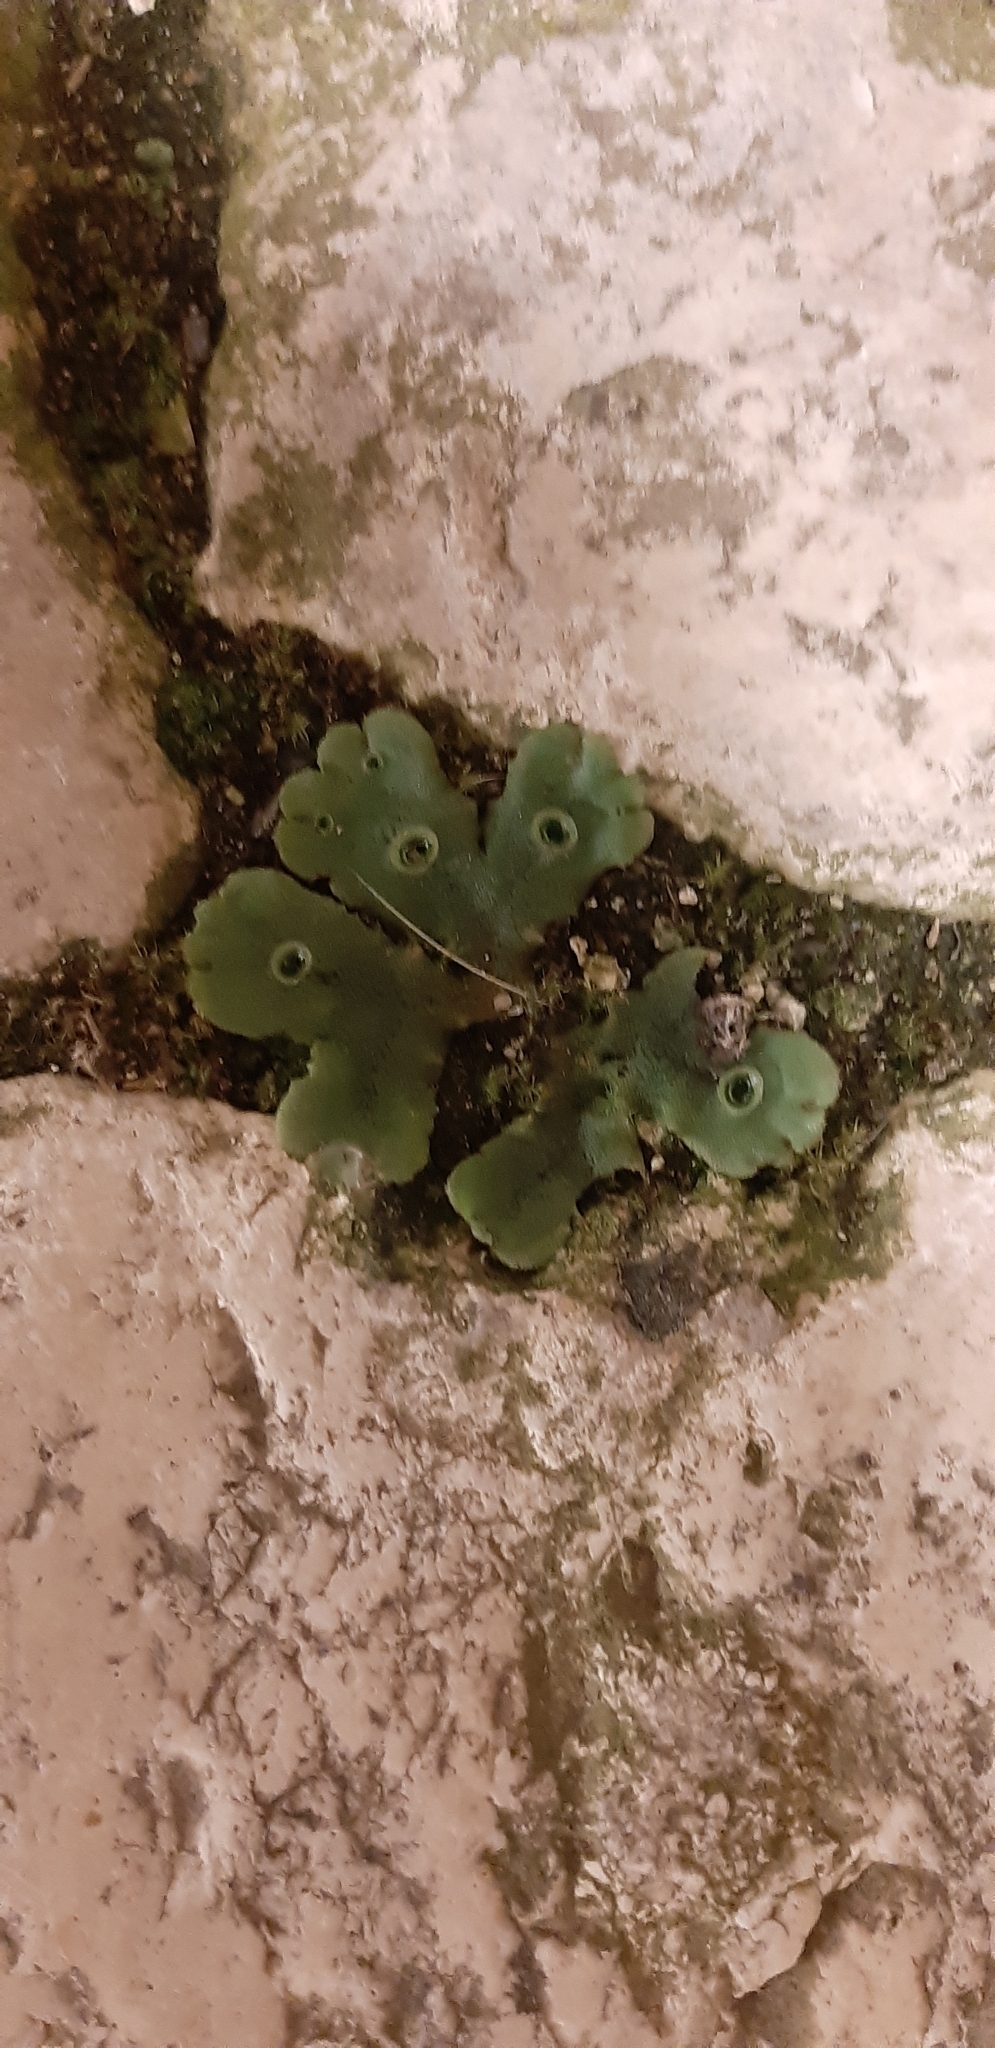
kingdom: Plantae
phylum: Marchantiophyta
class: Marchantiopsida
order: Marchantiales
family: Marchantiaceae
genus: Marchantia
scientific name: Marchantia polymorpha
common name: Common liverwort
